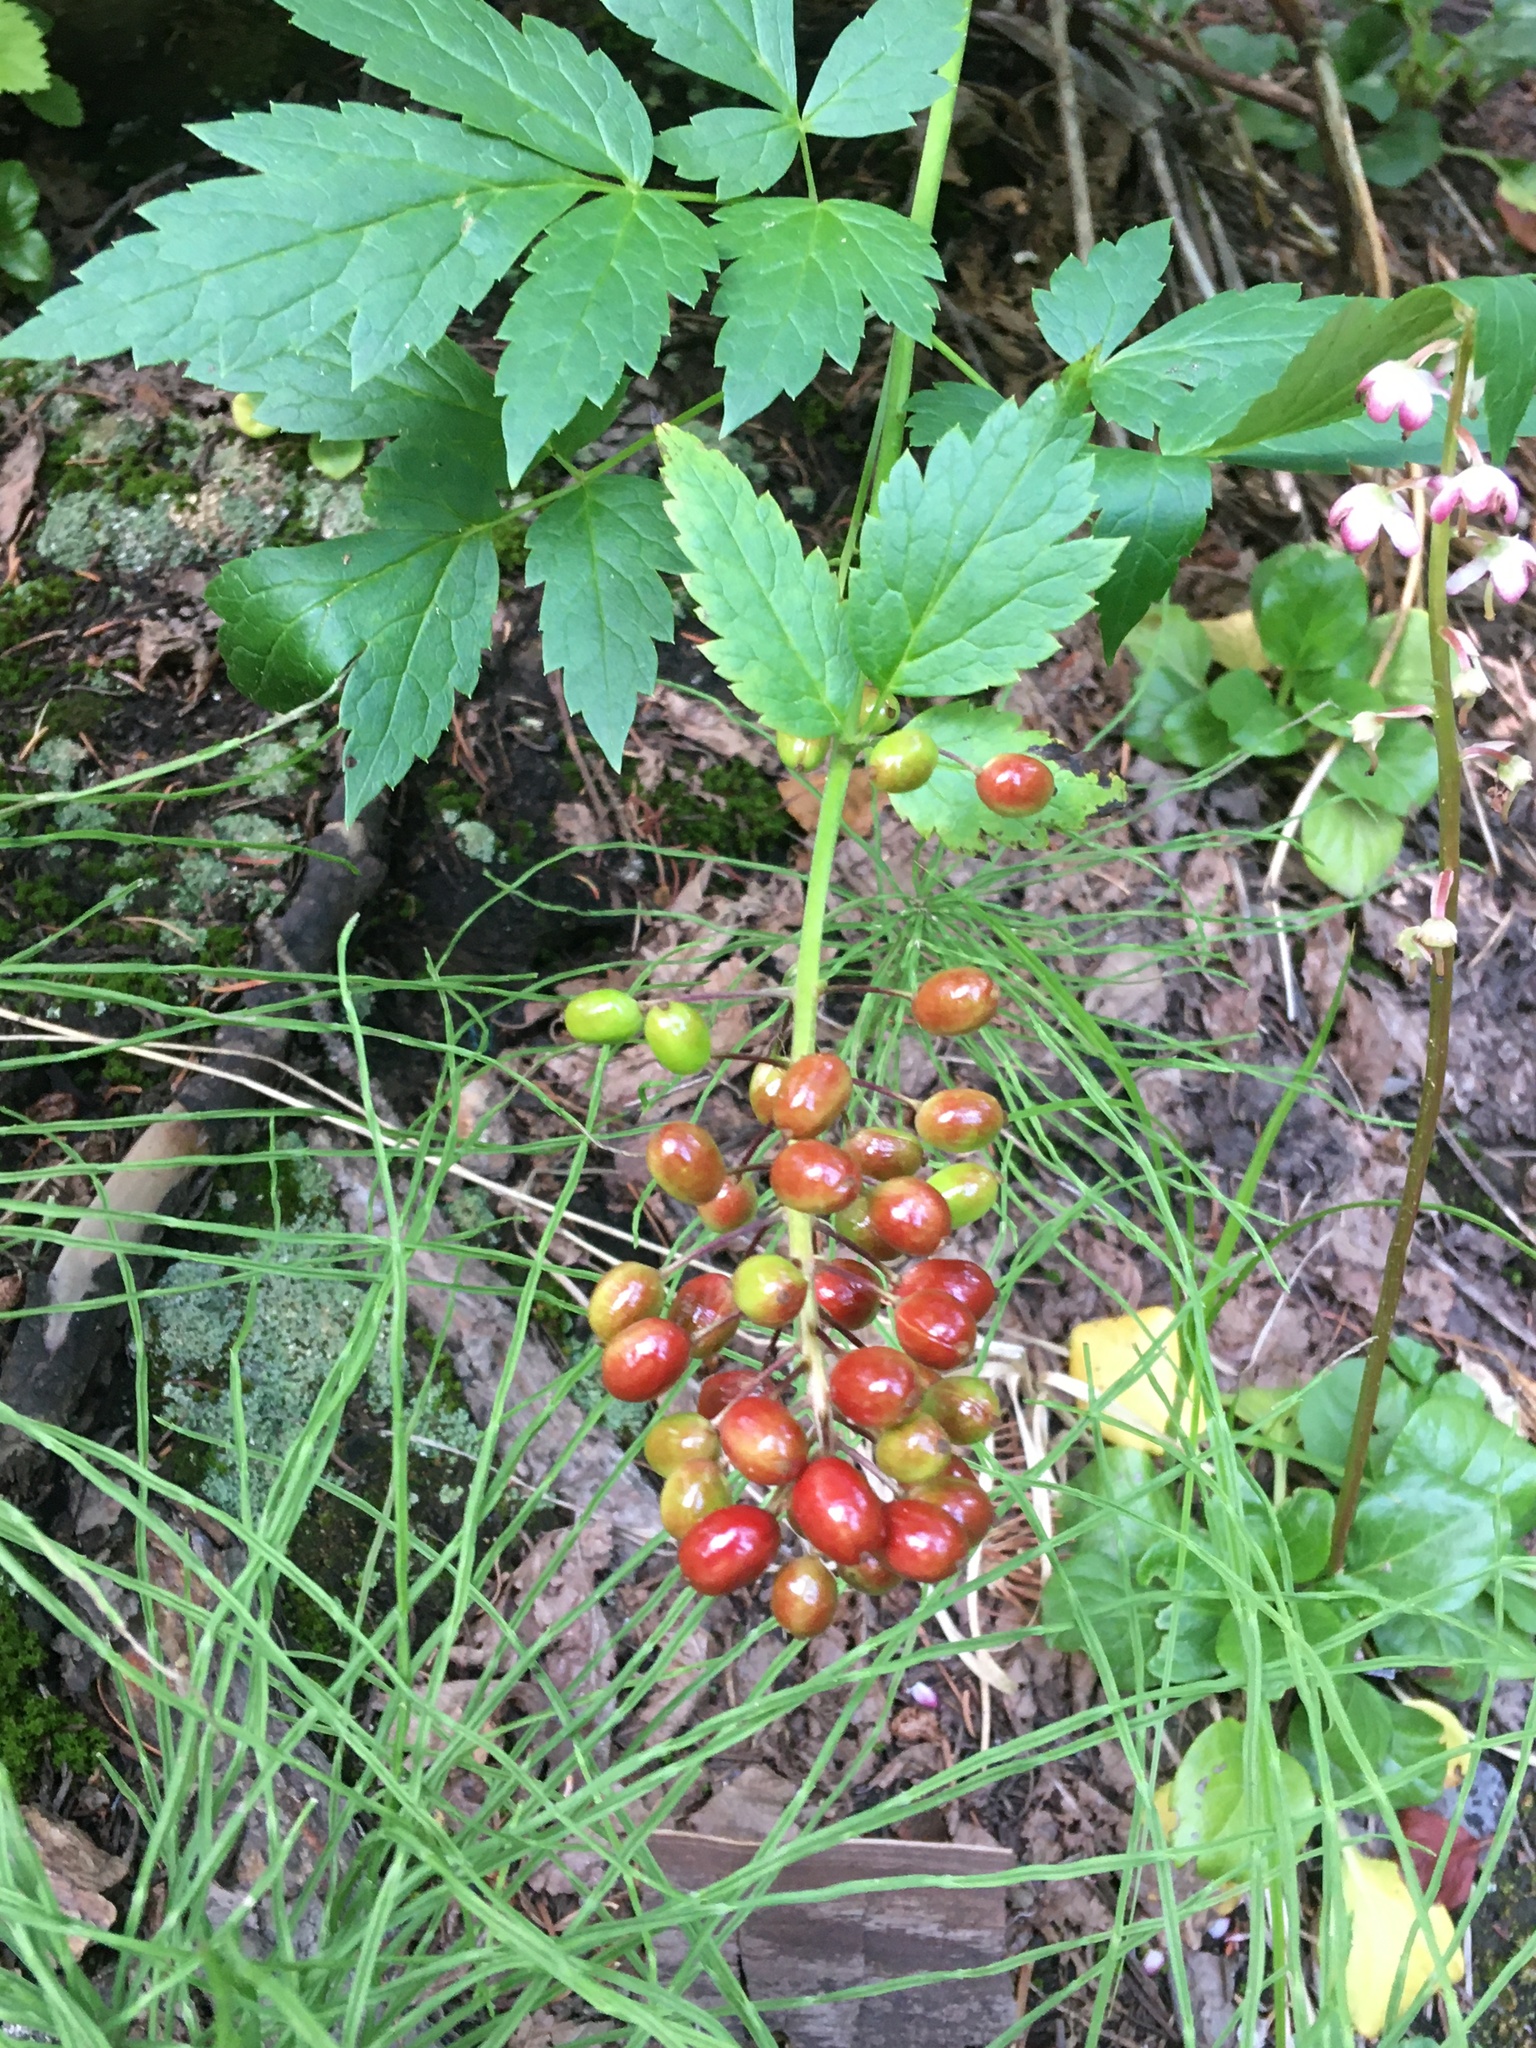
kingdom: Plantae
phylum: Tracheophyta
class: Magnoliopsida
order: Ranunculales
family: Ranunculaceae
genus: Actaea
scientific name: Actaea rubra
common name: Red baneberry
